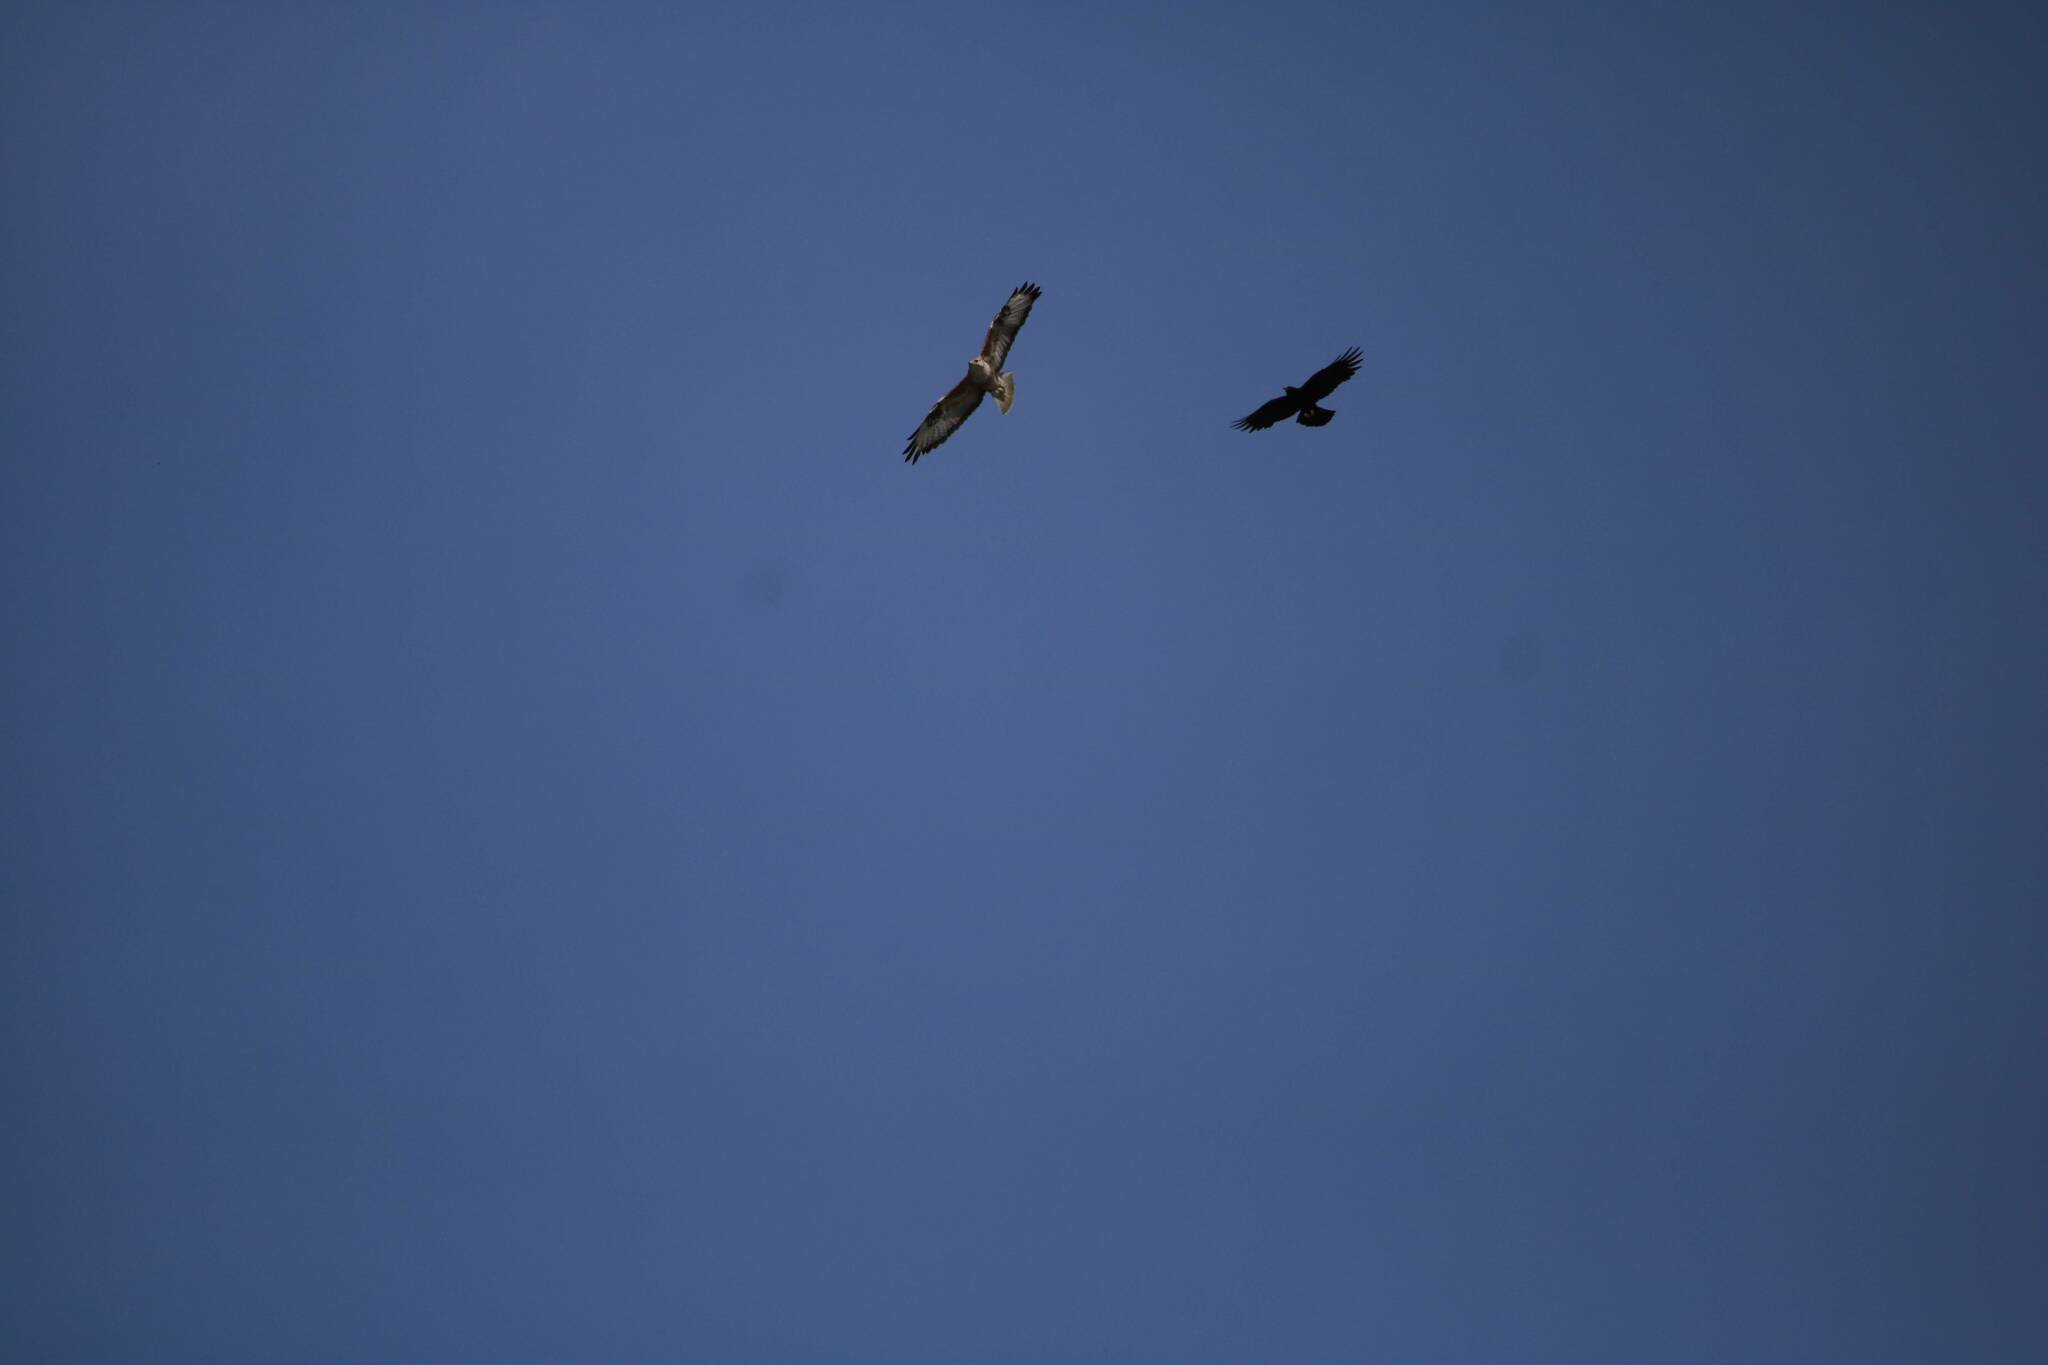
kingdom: Animalia
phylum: Chordata
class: Aves
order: Accipitriformes
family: Accipitridae
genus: Buteo
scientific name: Buteo rufinus
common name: Long-legged buzzard
